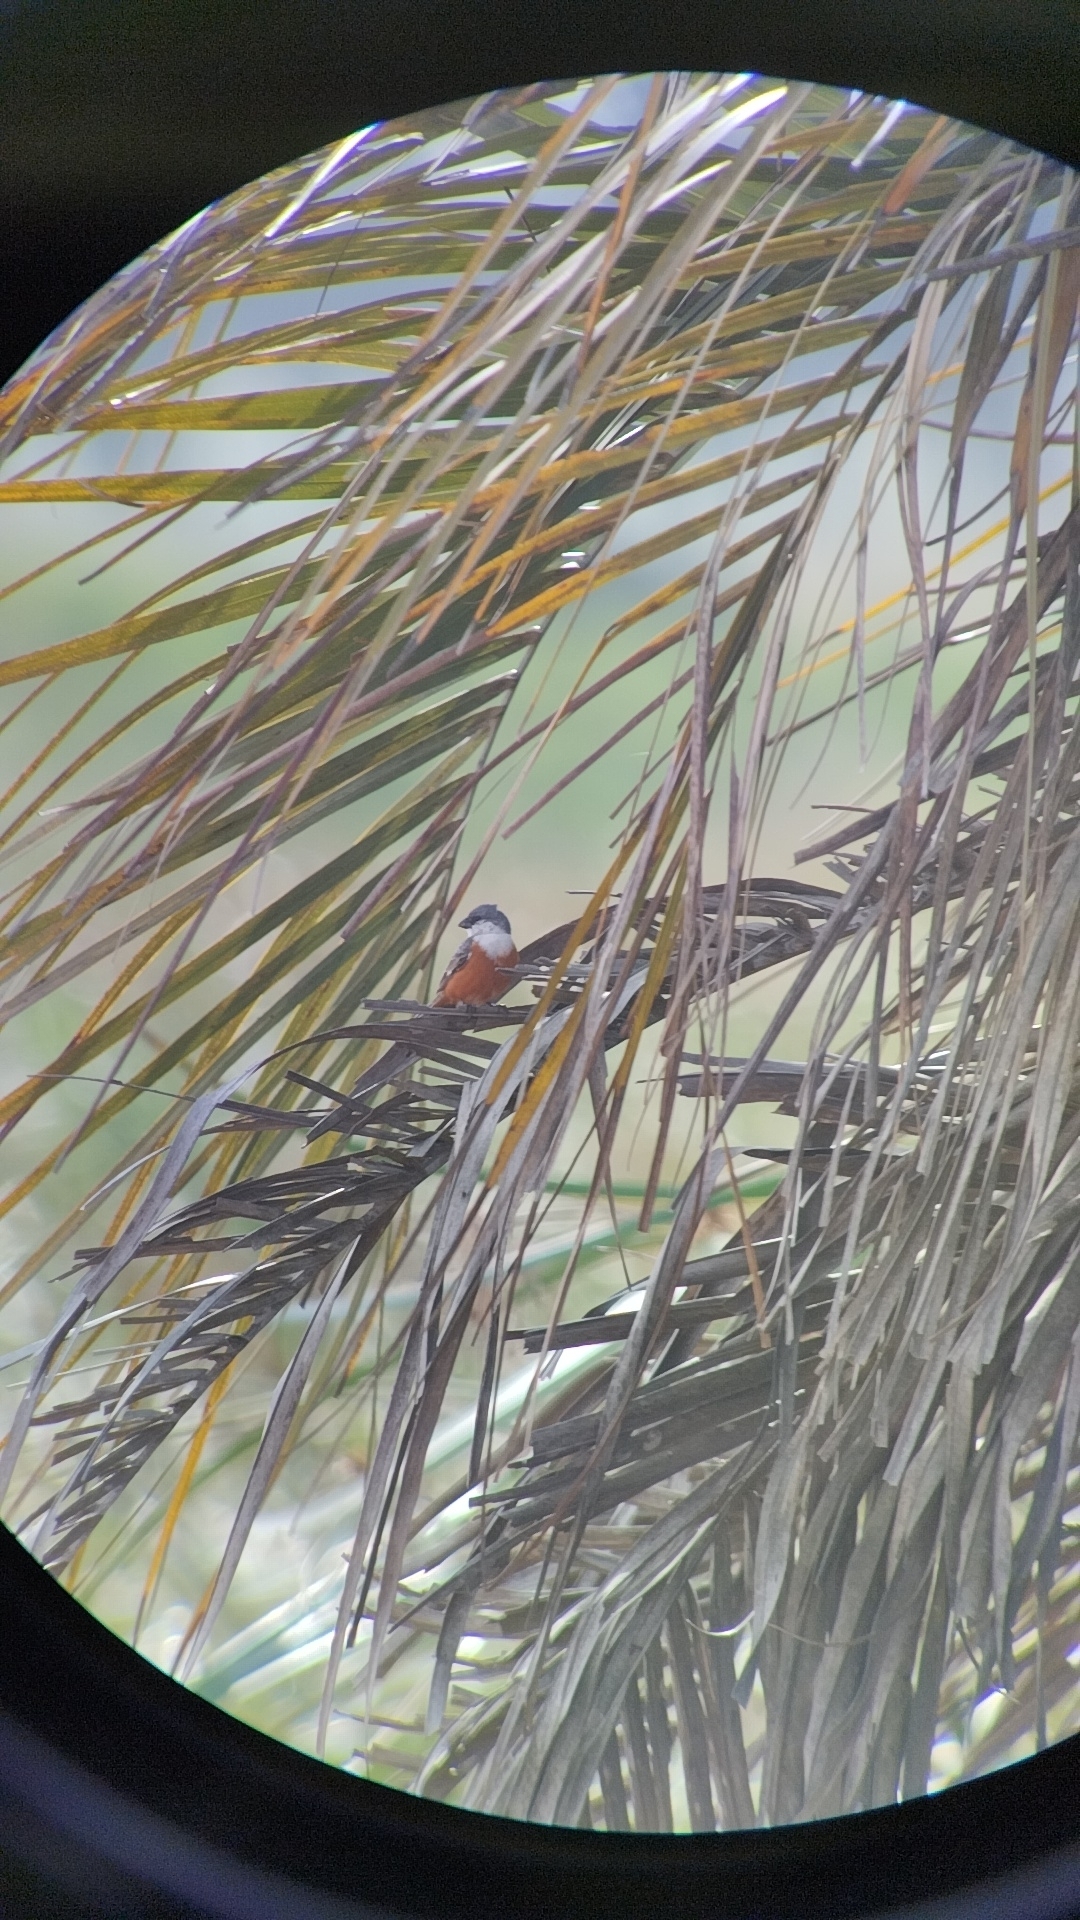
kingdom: Animalia
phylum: Chordata
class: Aves
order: Passeriformes
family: Thraupidae
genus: Sporophila
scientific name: Sporophila palustris
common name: Marsh seedeater
